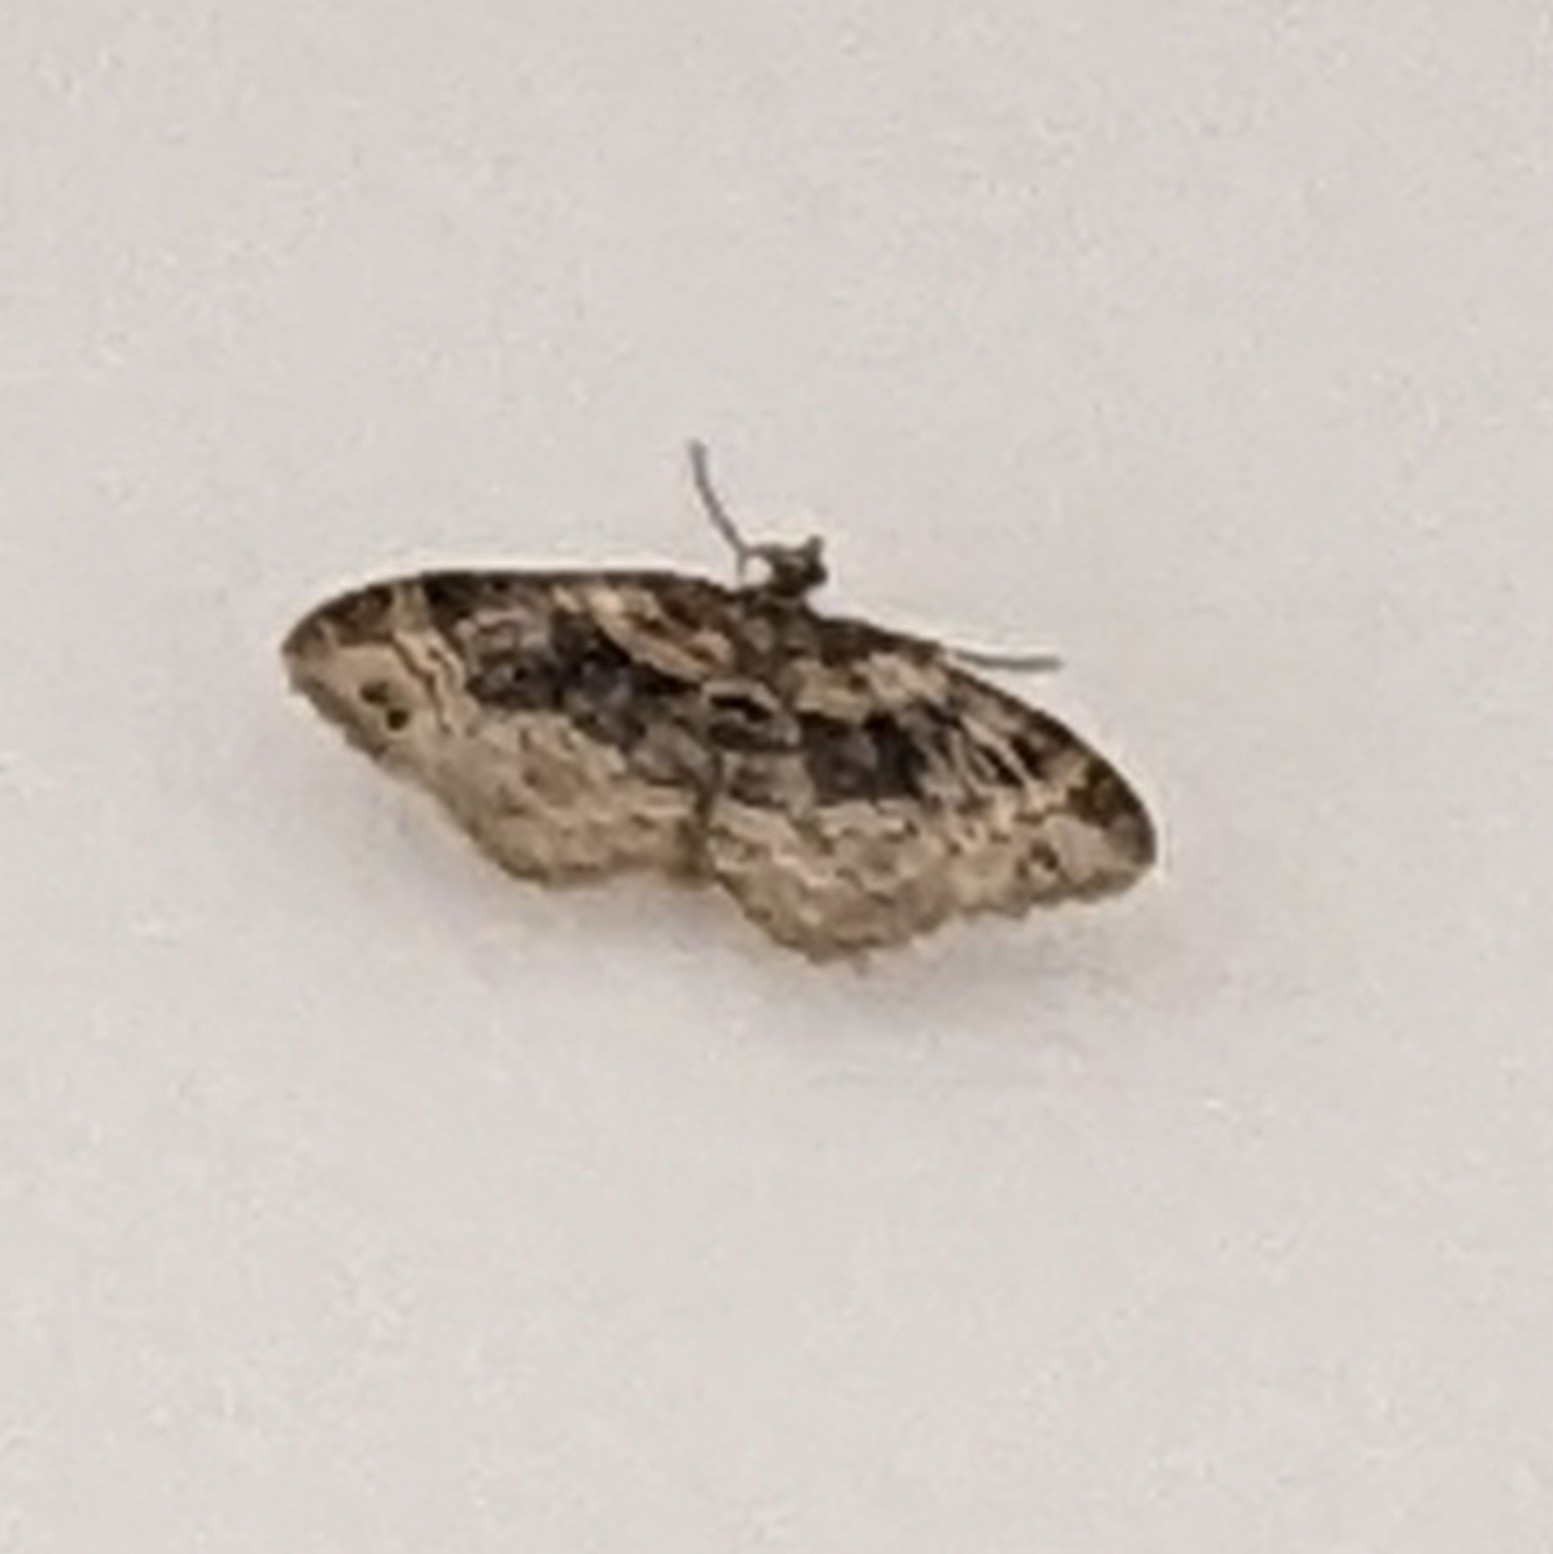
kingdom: Animalia
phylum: Arthropoda
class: Insecta
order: Lepidoptera
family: Geometridae
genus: Xanthorhoe
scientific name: Xanthorhoe ferrugata
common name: Dark-barred twin-spot carpet
